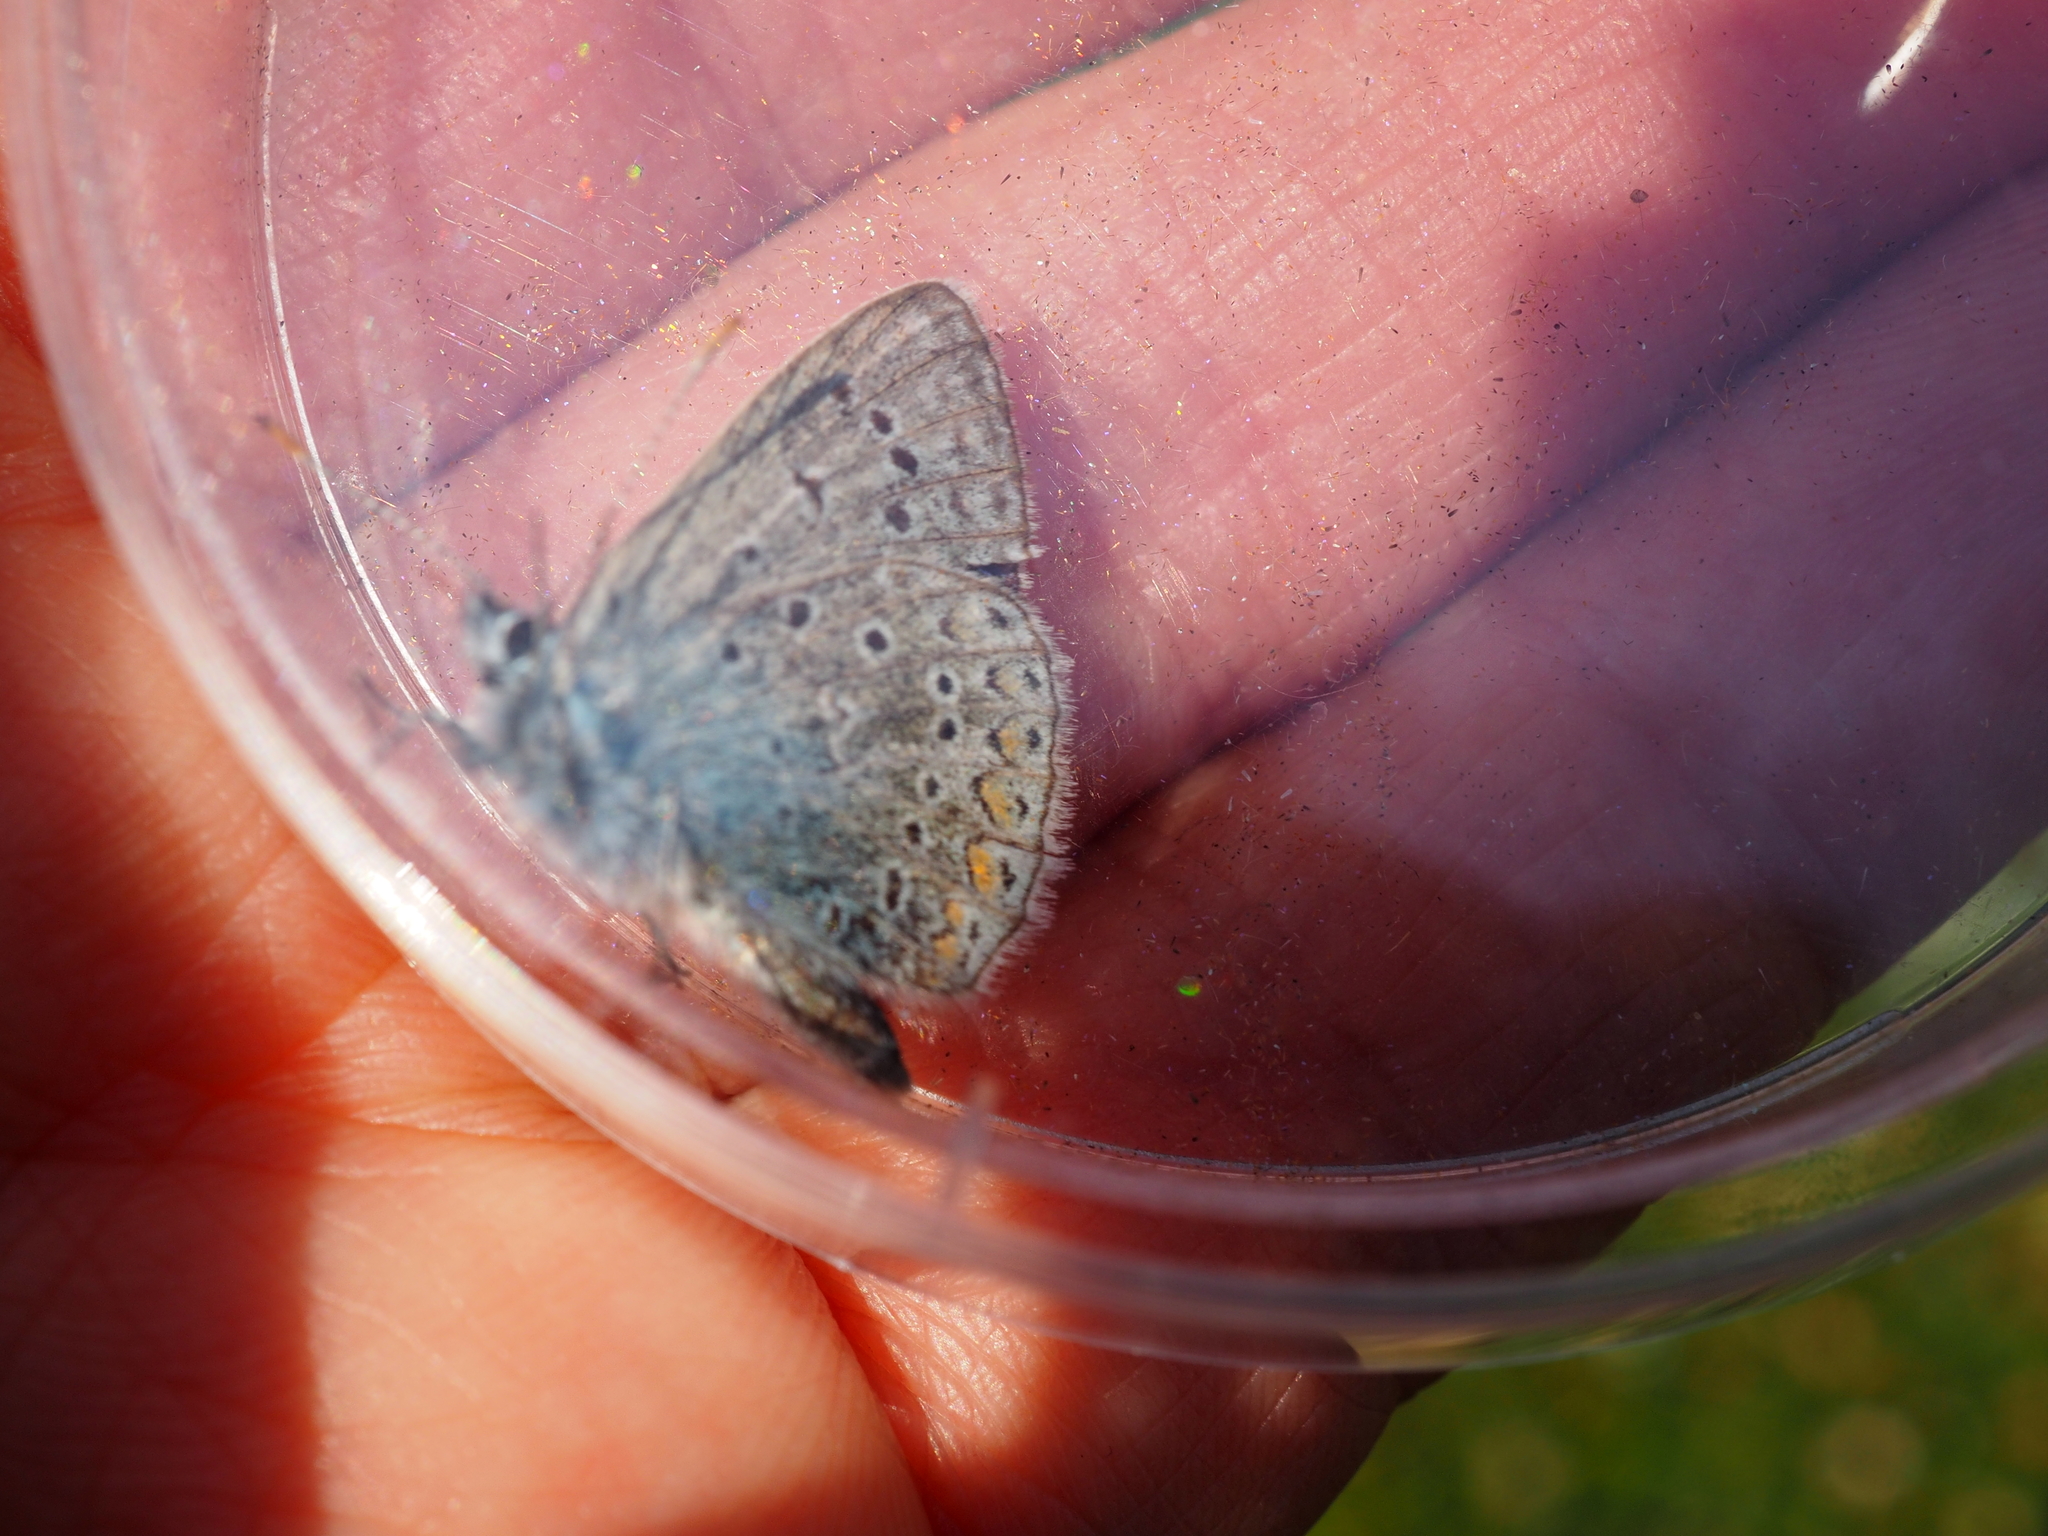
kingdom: Animalia
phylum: Arthropoda
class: Insecta
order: Lepidoptera
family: Lycaenidae
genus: Polyommatus
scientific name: Polyommatus icarus
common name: Common blue
